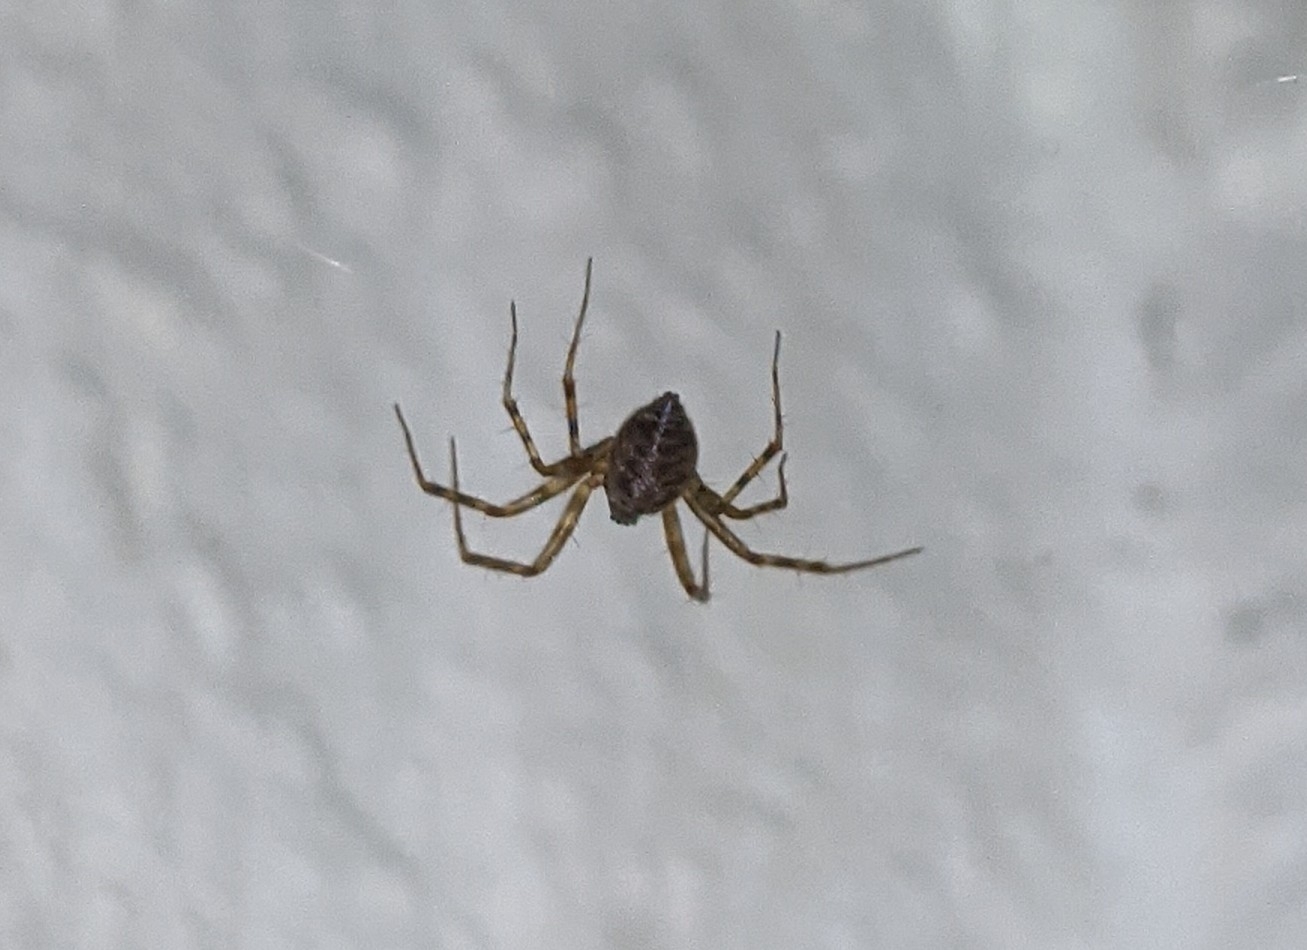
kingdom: Animalia
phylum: Arthropoda
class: Arachnida
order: Araneae
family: Linyphiidae
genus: Labulla
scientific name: Labulla thoracica
